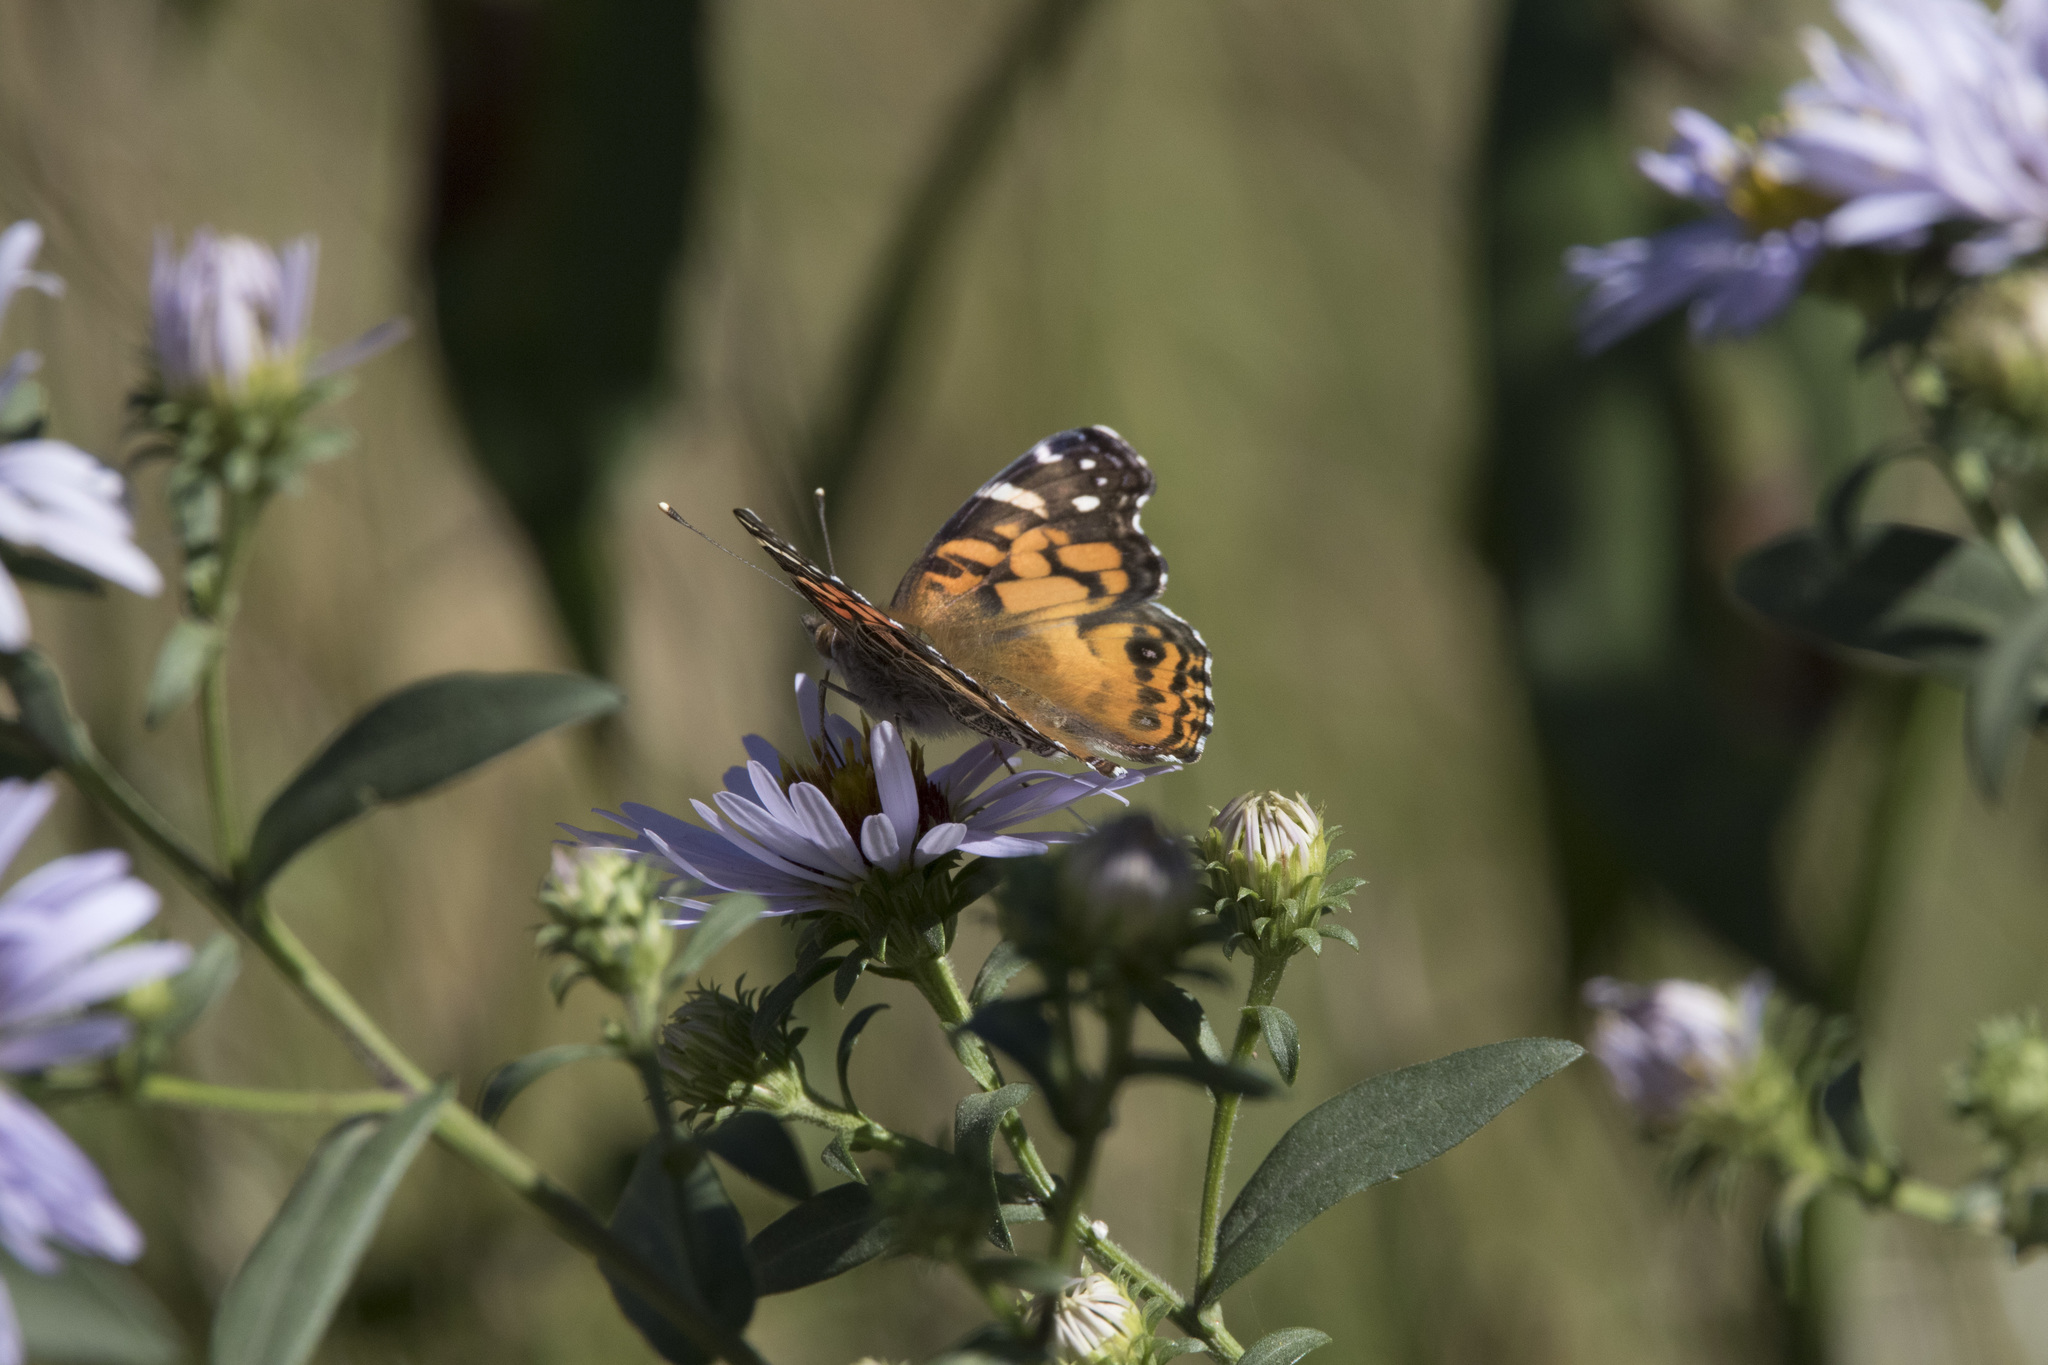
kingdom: Animalia
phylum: Arthropoda
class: Insecta
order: Lepidoptera
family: Nymphalidae
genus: Vanessa
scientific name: Vanessa virginiensis
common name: American lady
